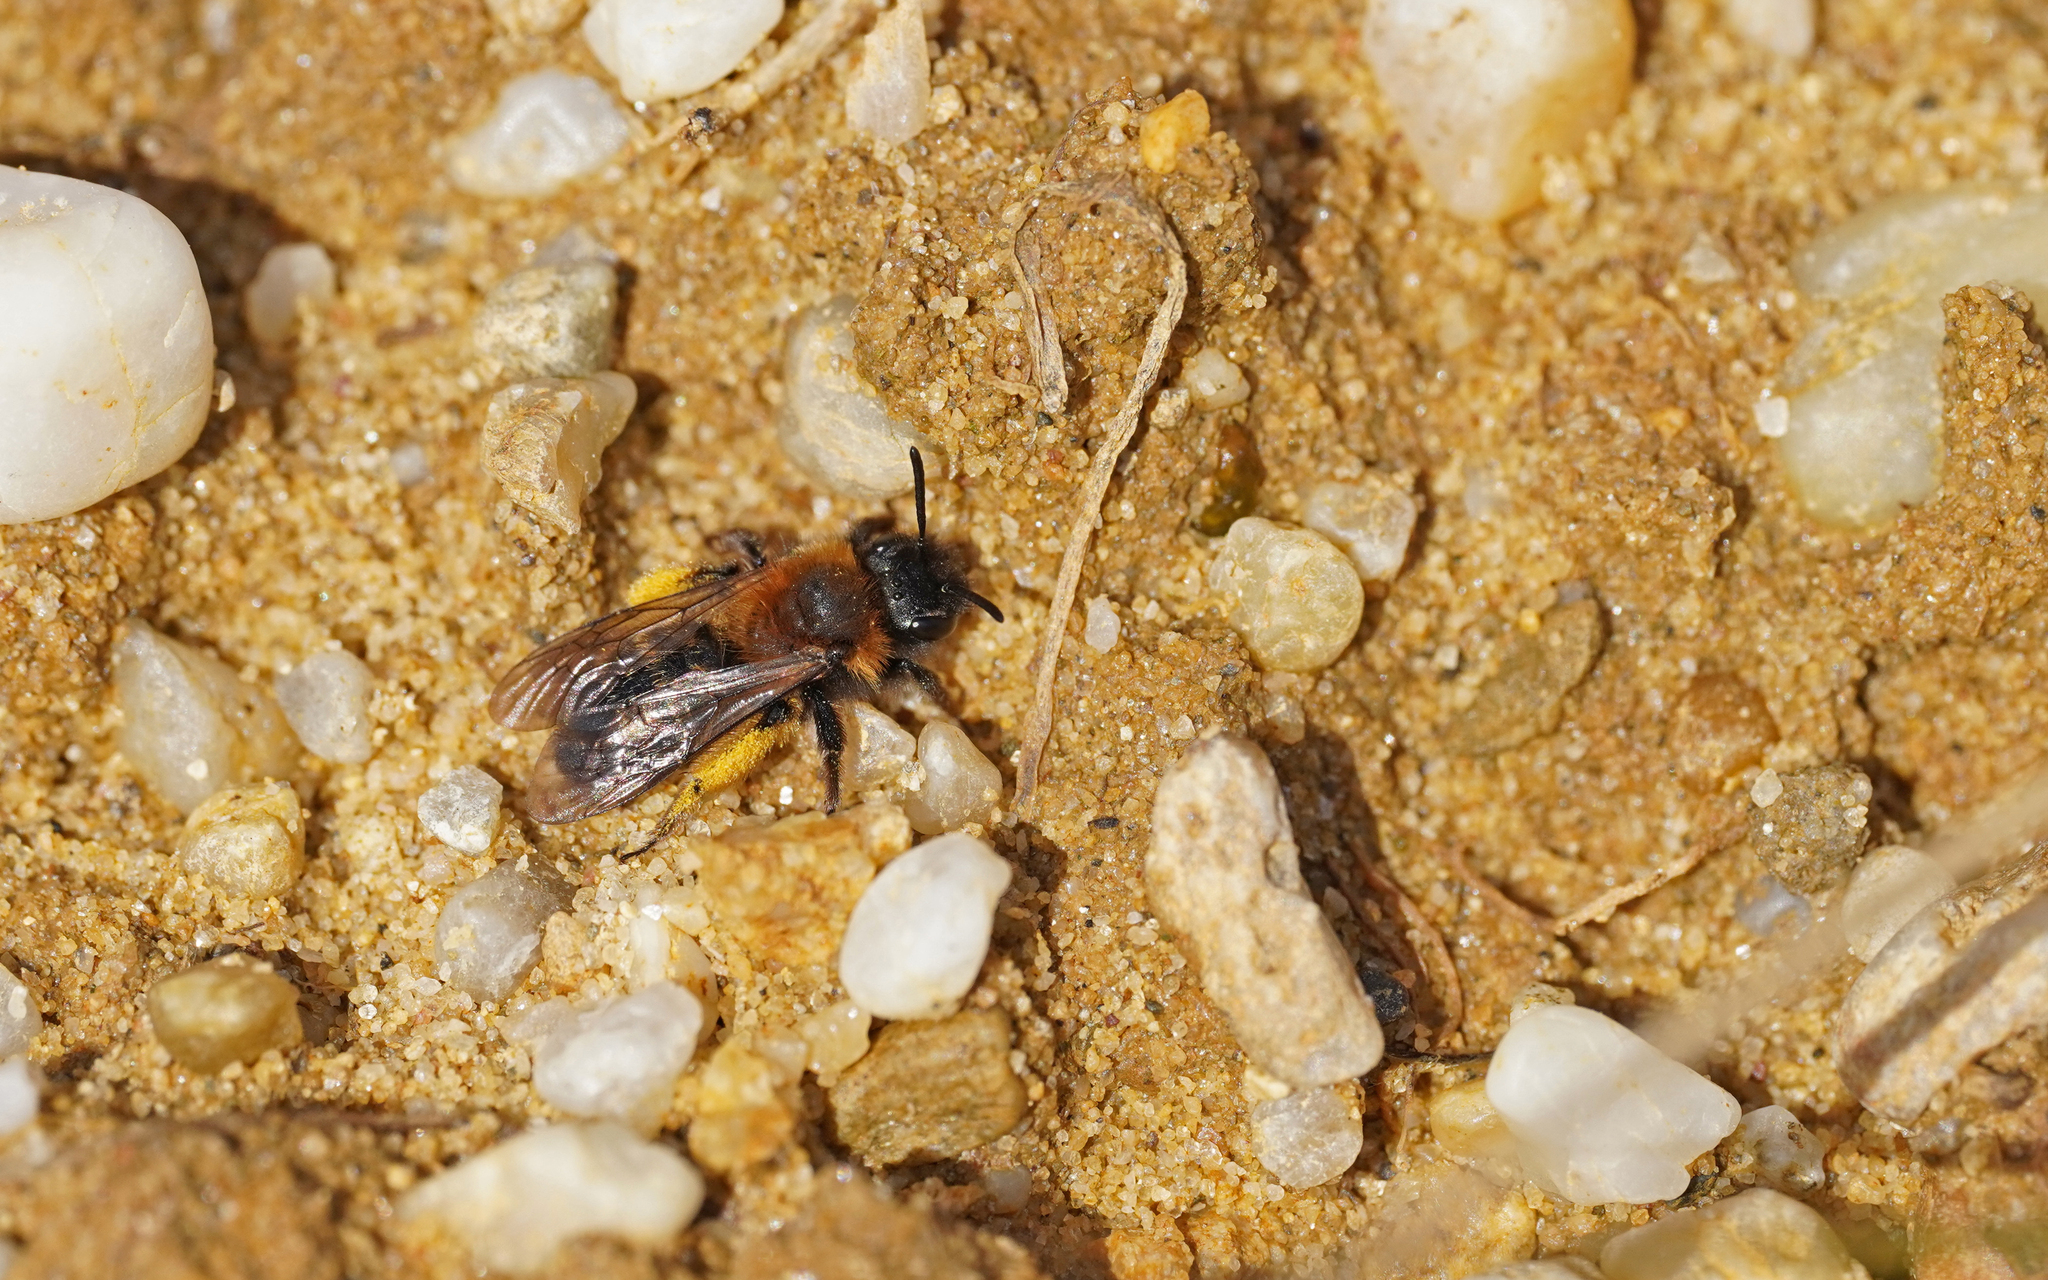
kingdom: Animalia
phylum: Arthropoda
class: Insecta
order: Hymenoptera
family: Andrenidae
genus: Andrena
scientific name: Andrena bicolor
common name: Gwynne's mining bee
